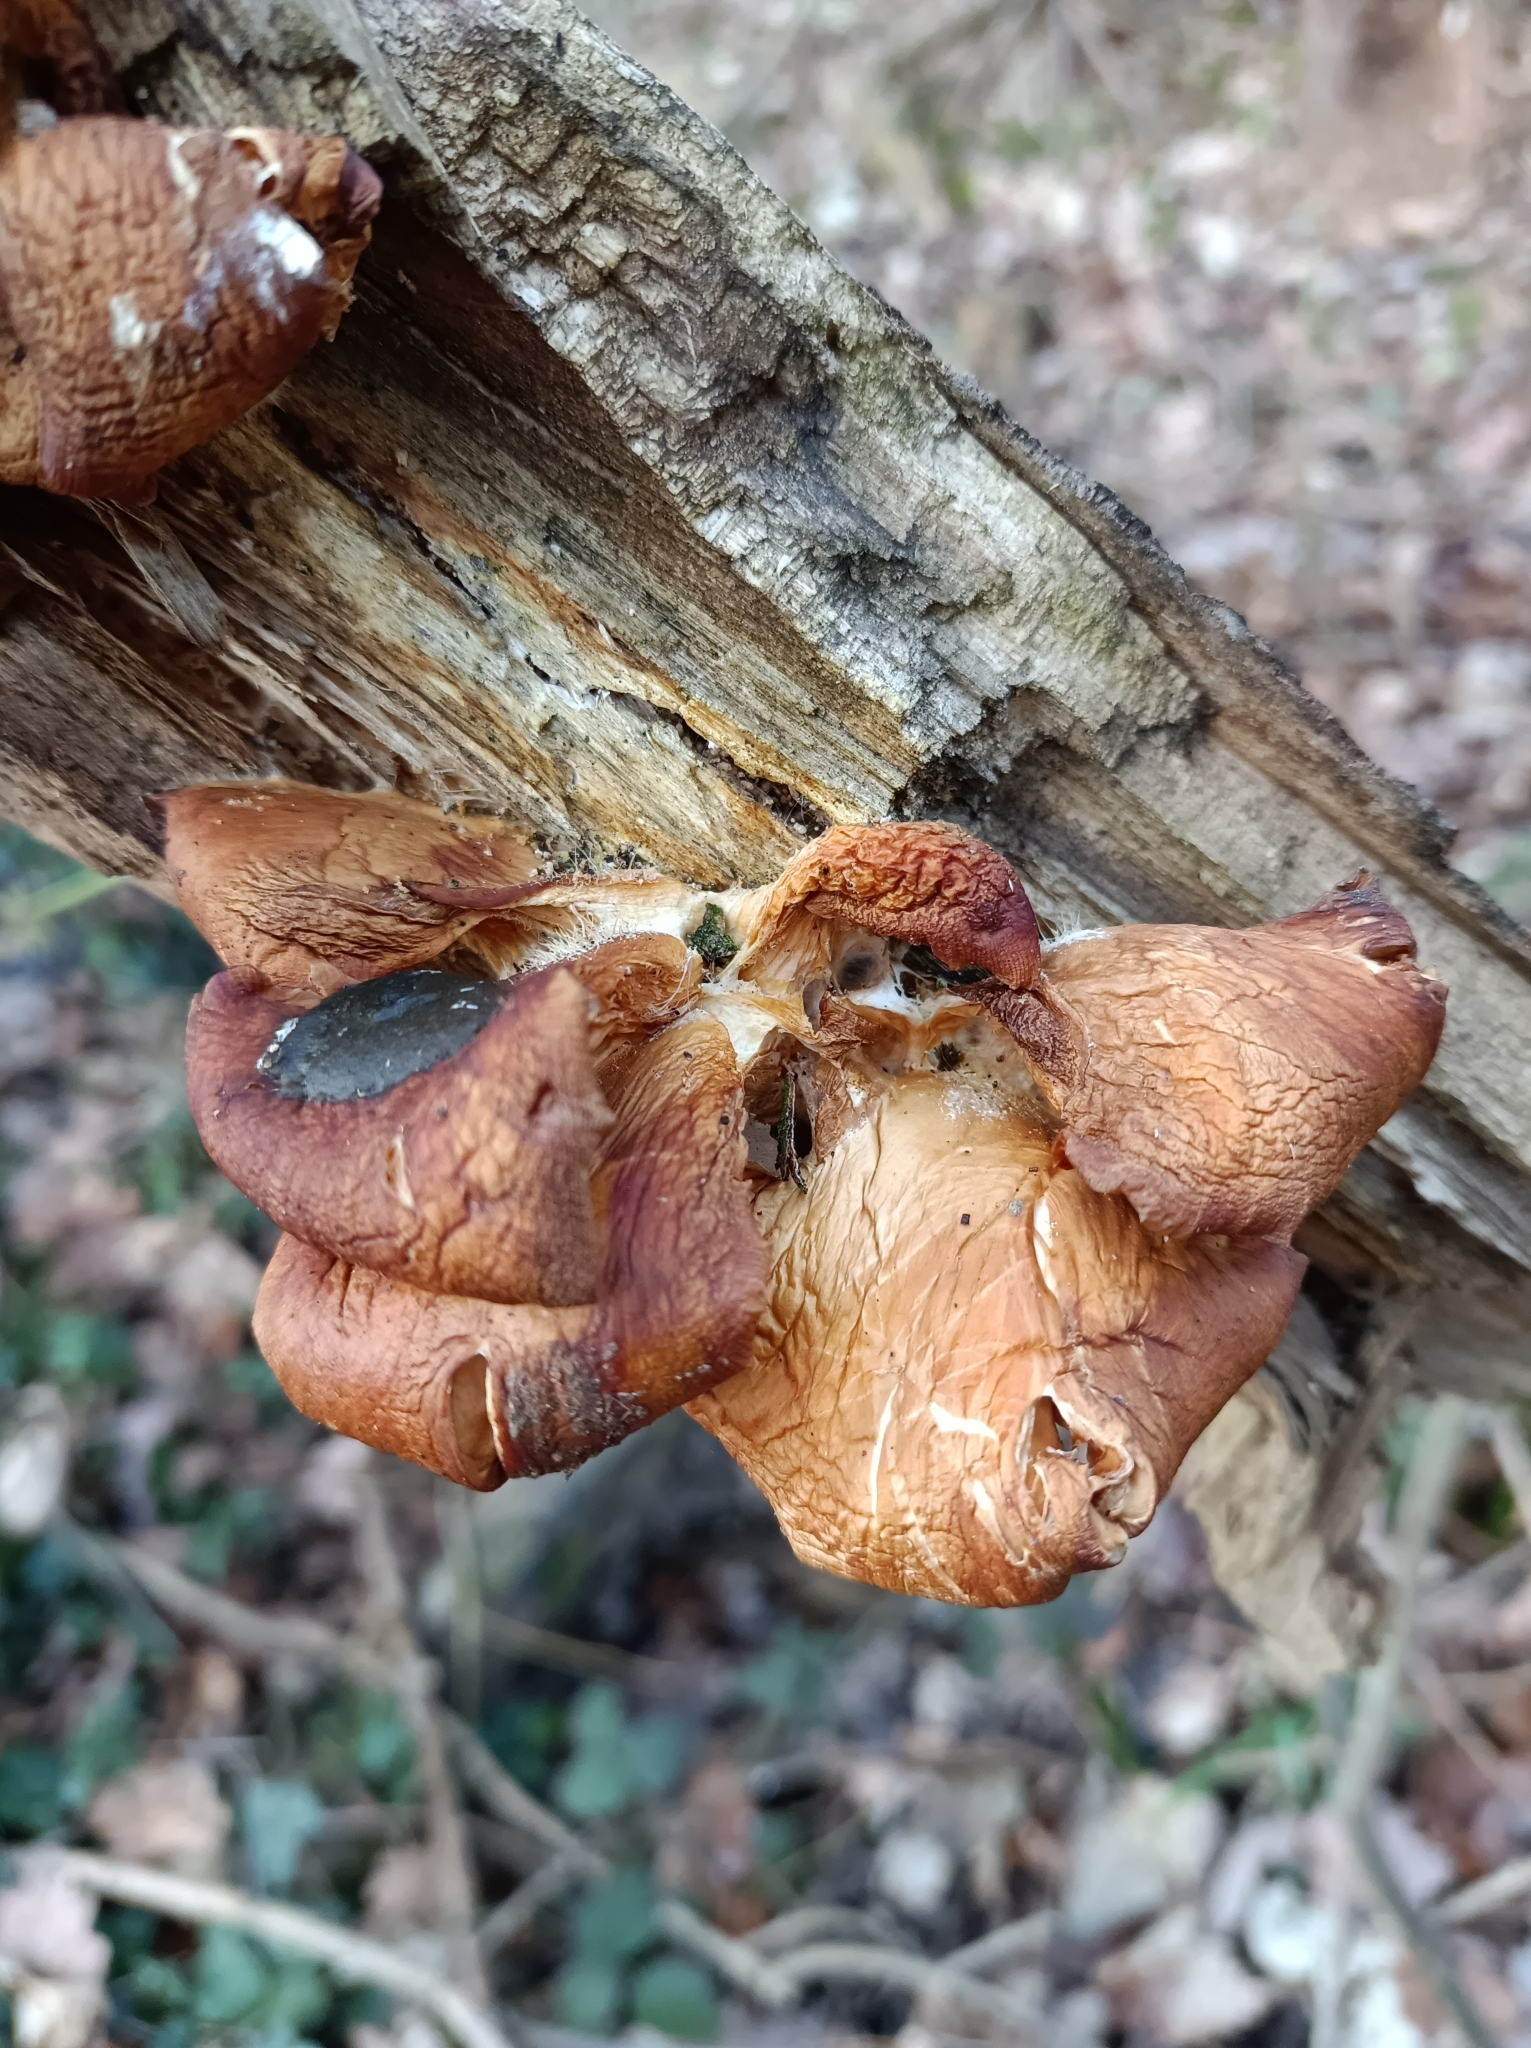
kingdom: Fungi
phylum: Basidiomycota
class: Agaricomycetes
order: Agaricales
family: Pleurotaceae
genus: Pleurotus
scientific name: Pleurotus ostreatus
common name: Oyster mushroom
